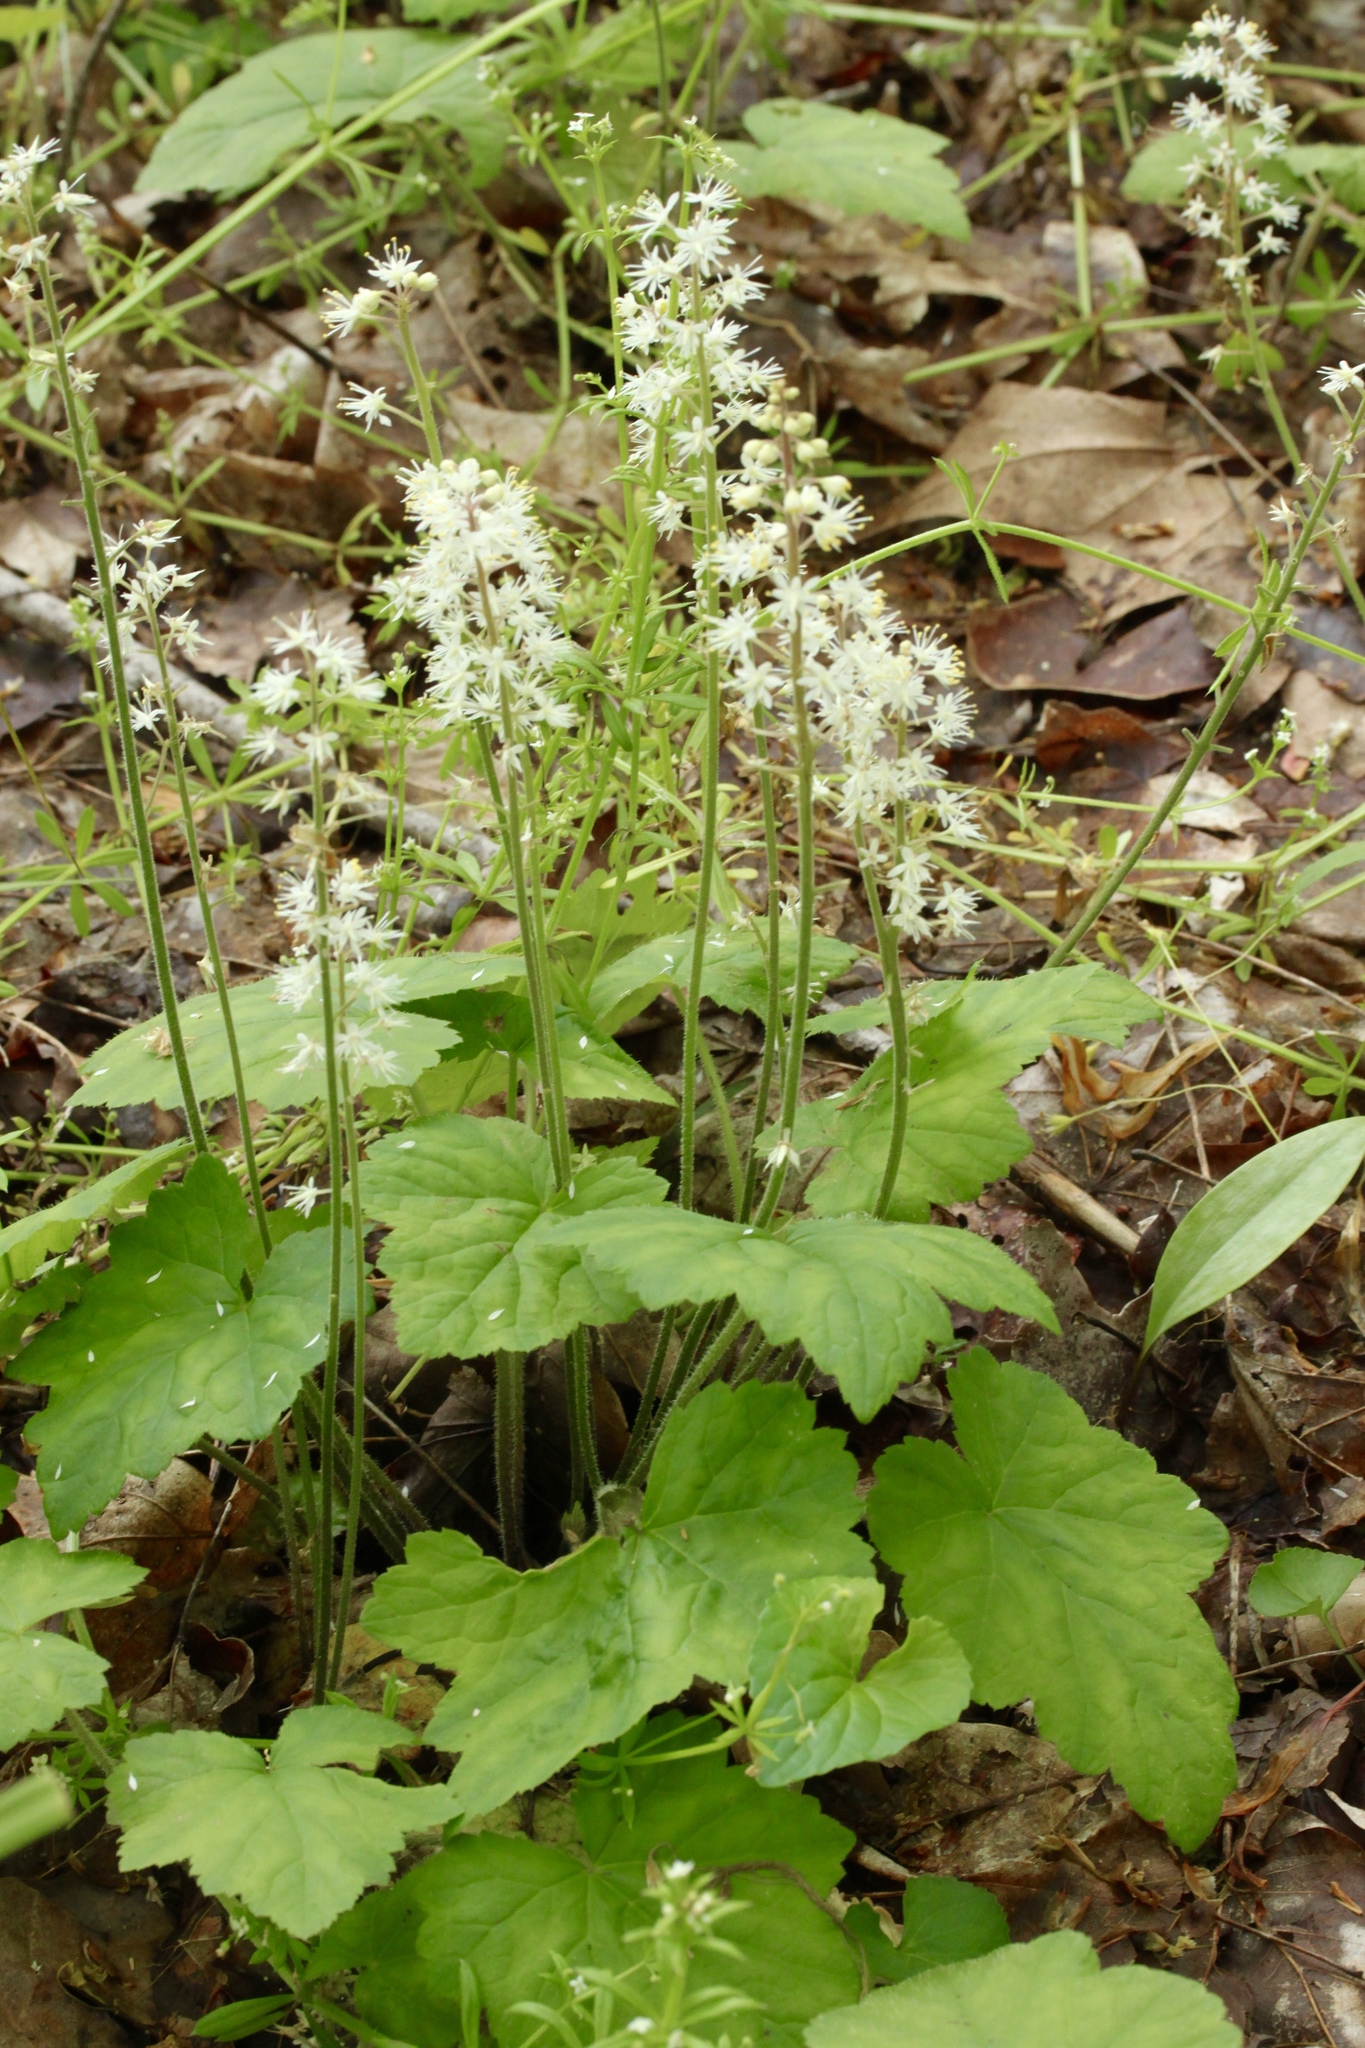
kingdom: Plantae
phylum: Tracheophyta
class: Magnoliopsida
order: Saxifragales
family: Saxifragaceae
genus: Tiarella
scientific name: Tiarella stolonifera
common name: Stoloniferous foamflower
